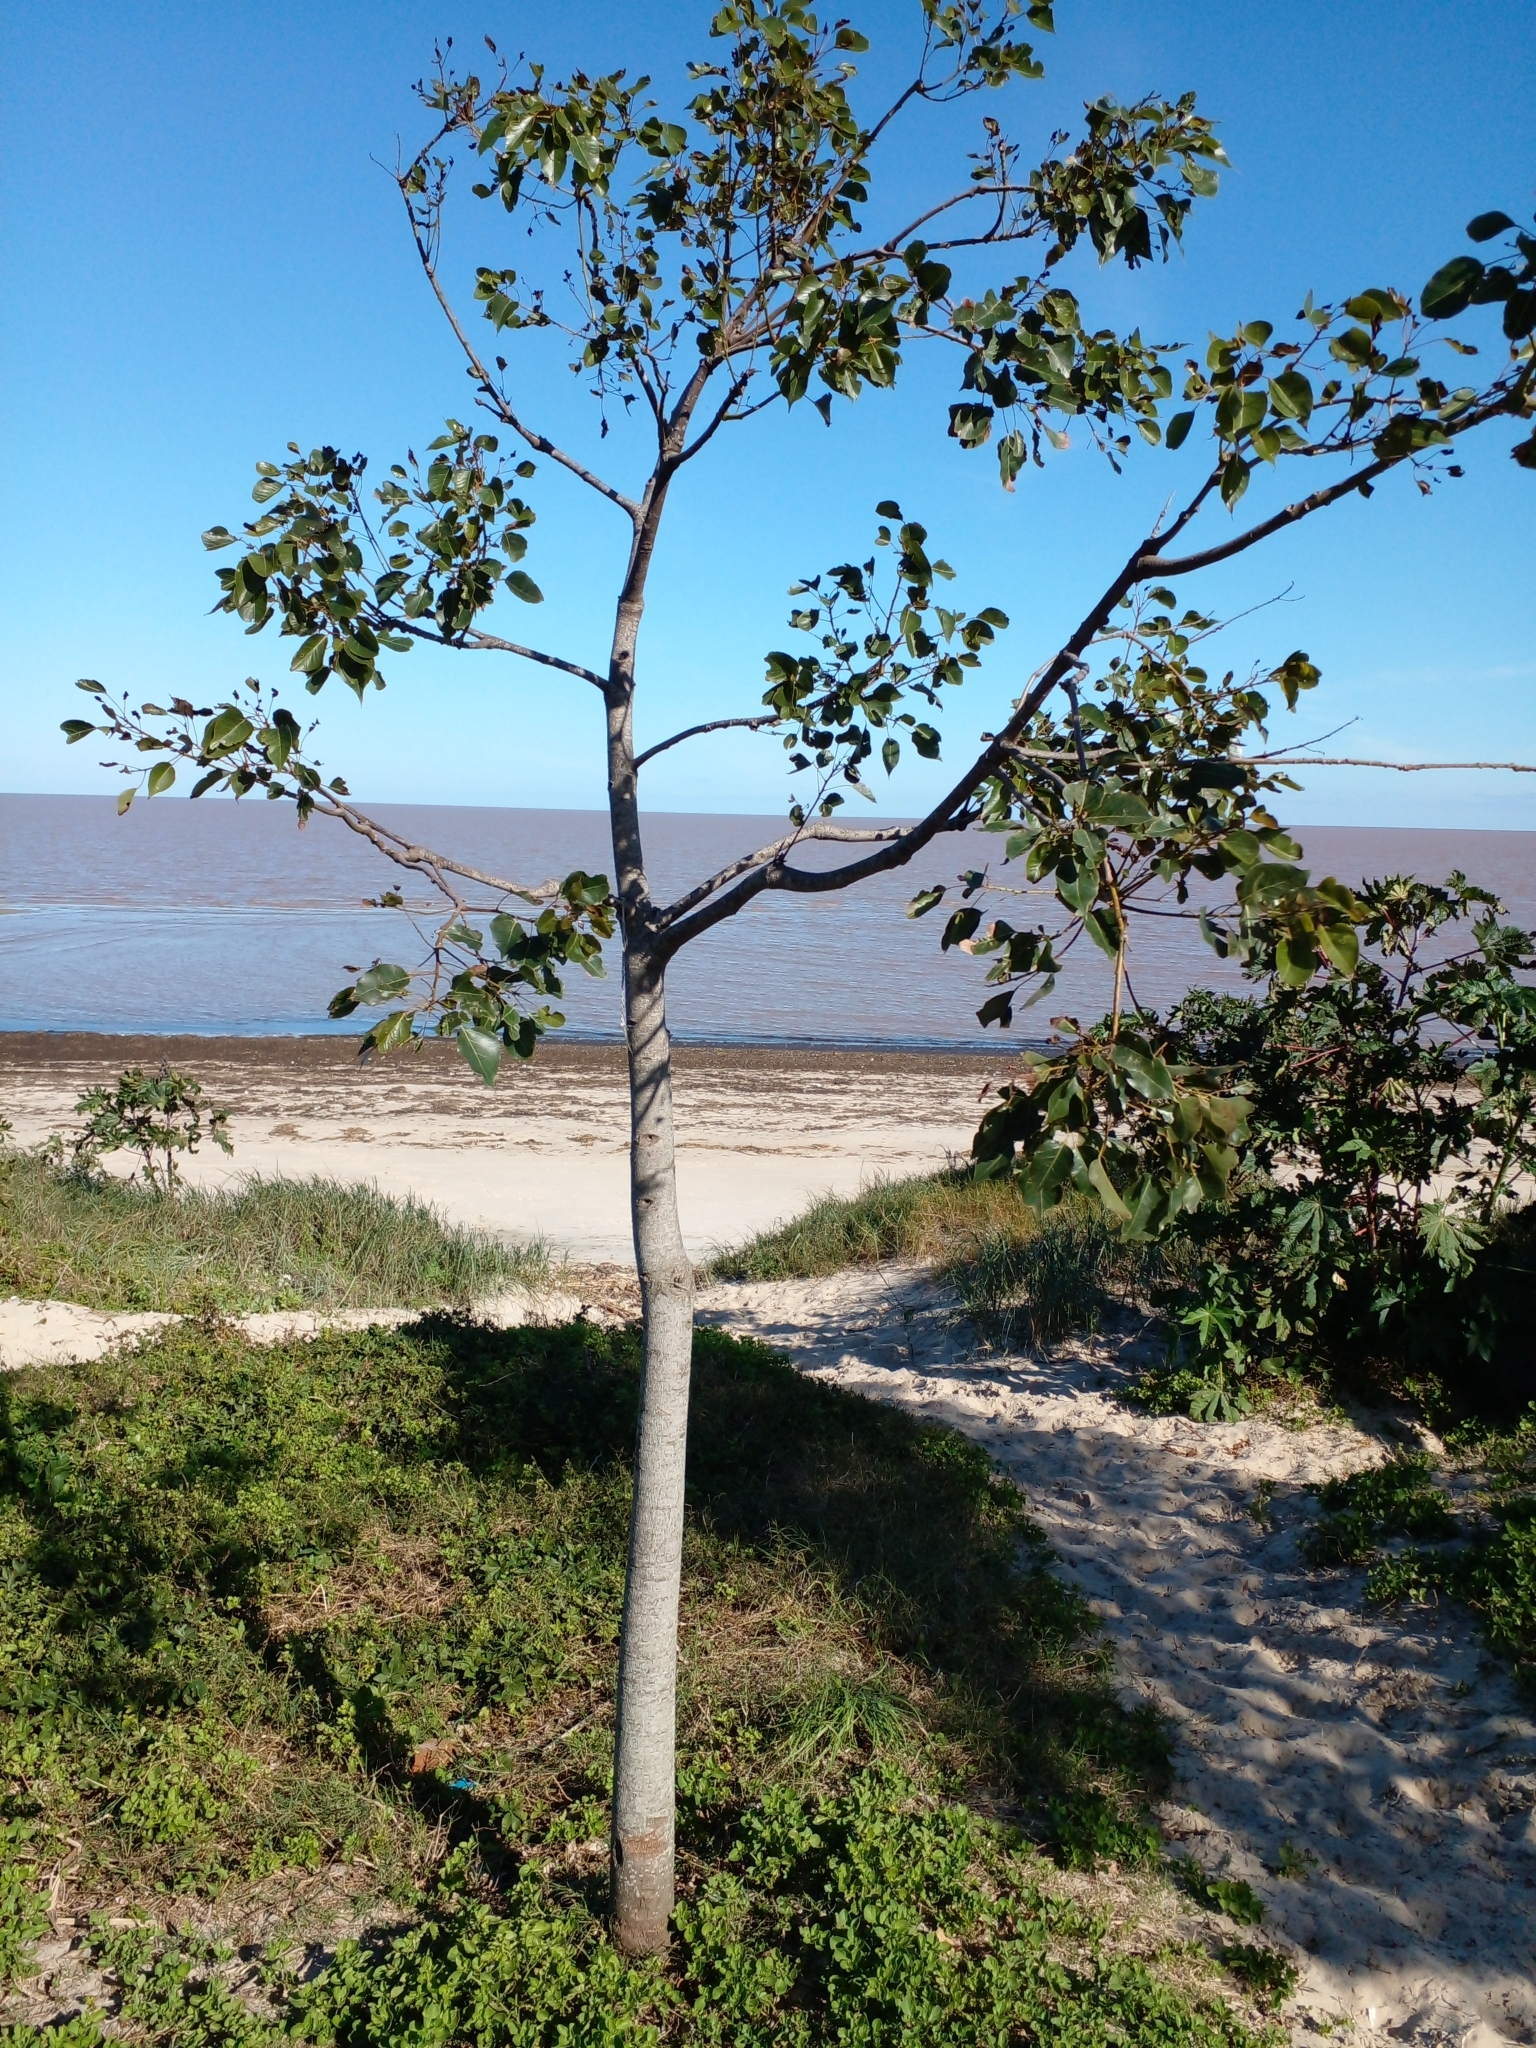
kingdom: Plantae
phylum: Tracheophyta
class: Magnoliopsida
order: Malvales
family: Malvaceae
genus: Brachychiton
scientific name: Brachychiton populneus
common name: Kurrajong
